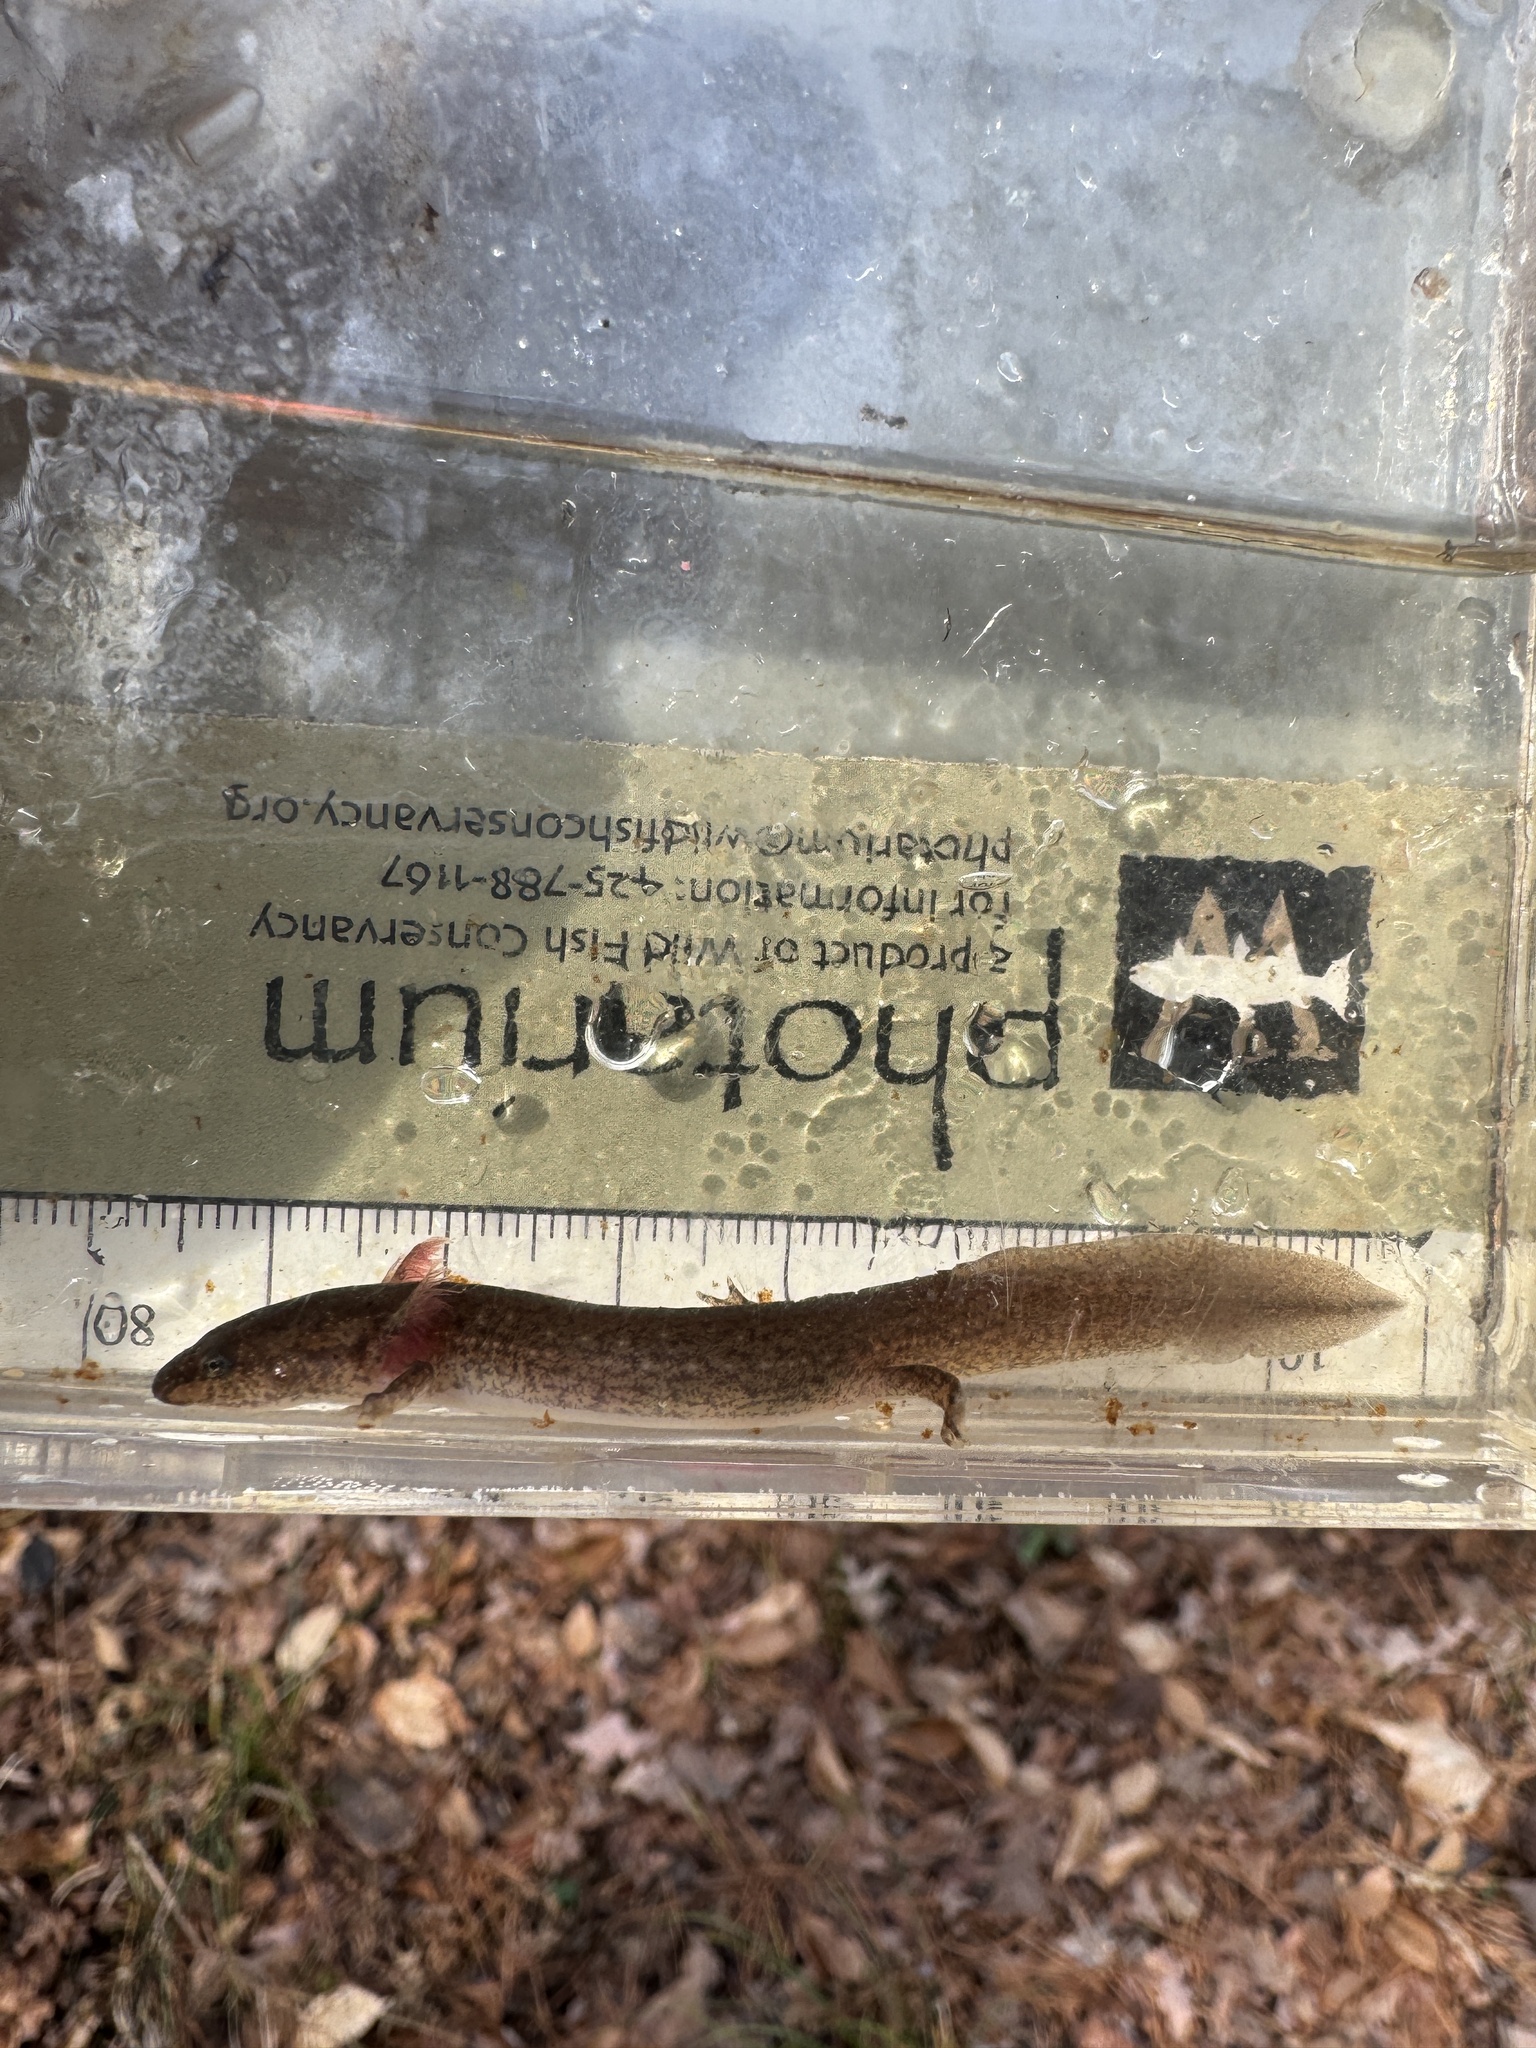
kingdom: Animalia
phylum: Chordata
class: Amphibia
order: Caudata
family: Plethodontidae
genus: Pseudotriton
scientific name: Pseudotriton ruber
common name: Red salamander
